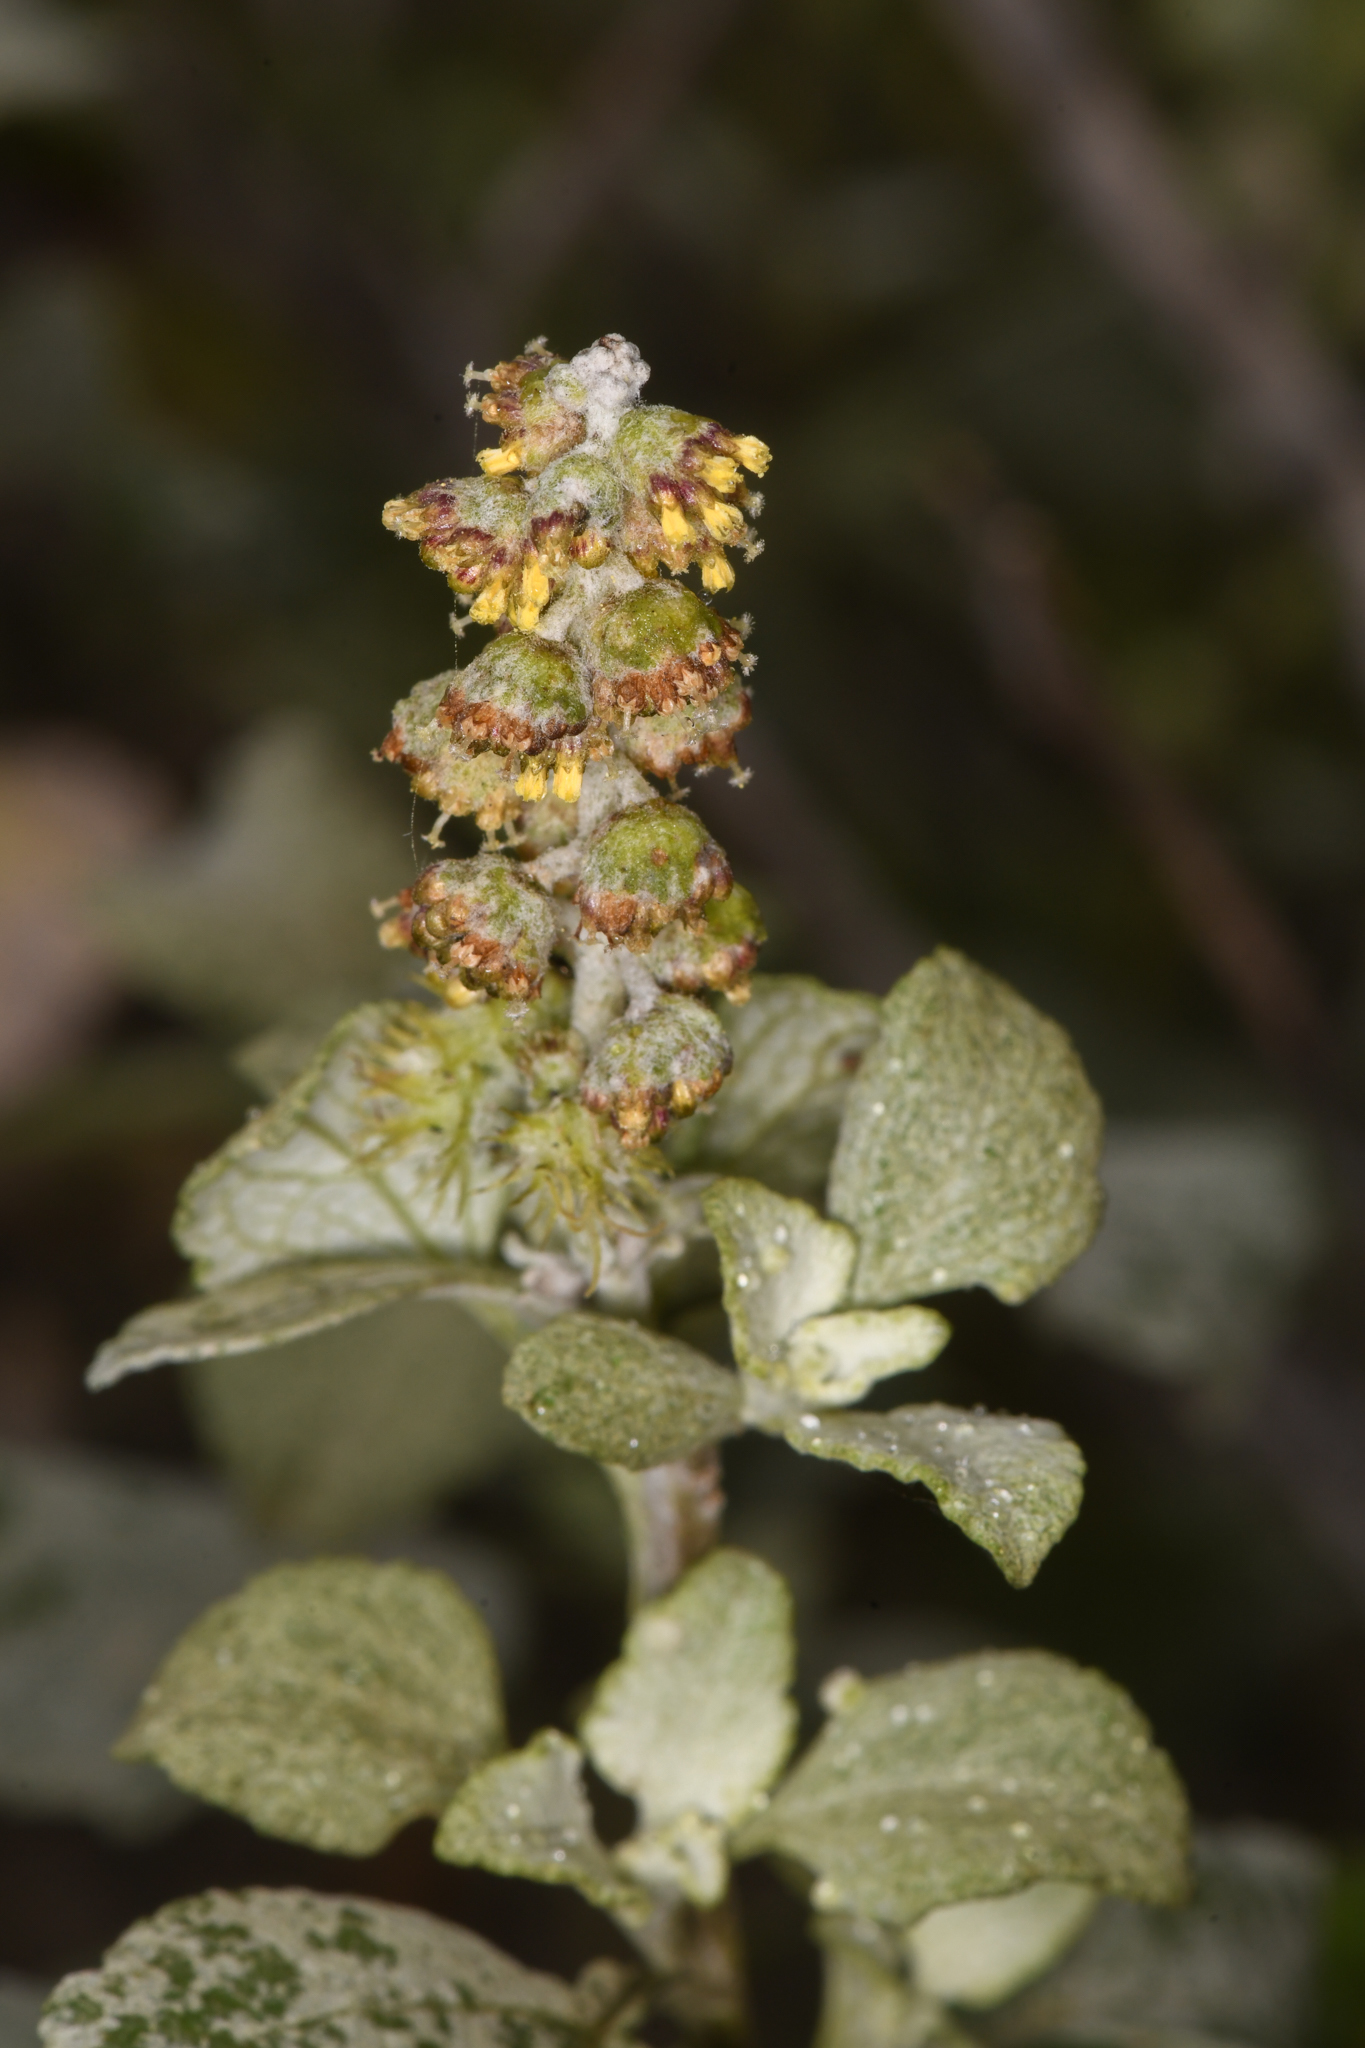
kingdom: Plantae
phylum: Tracheophyta
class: Magnoliopsida
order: Asterales
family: Asteraceae
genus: Ambrosia
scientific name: Ambrosia chenopodiifolia
